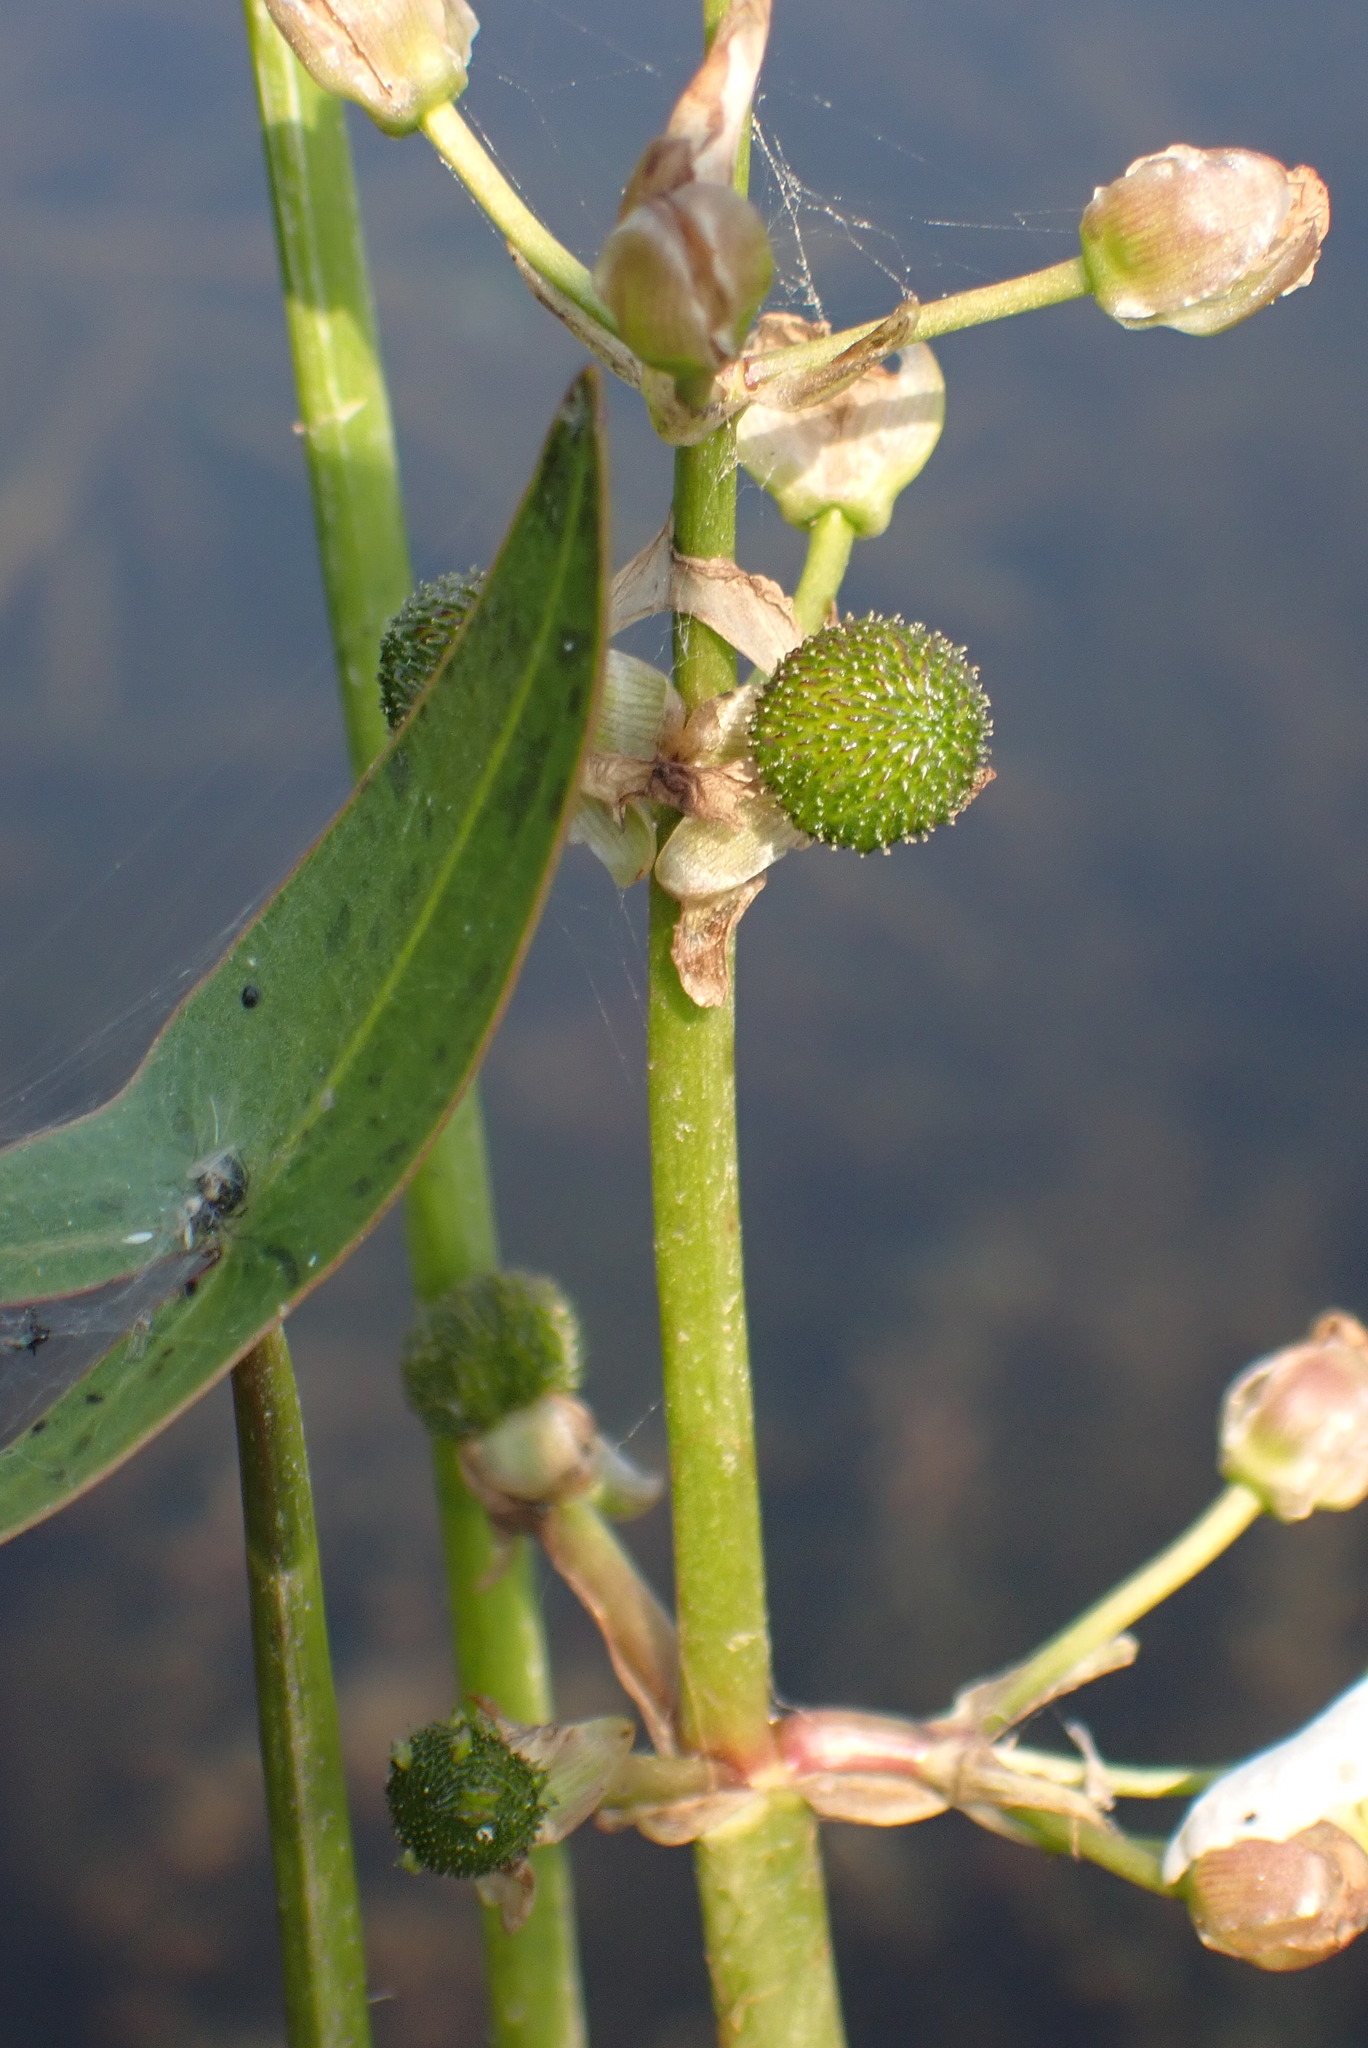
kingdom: Plantae
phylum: Tracheophyta
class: Liliopsida
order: Alismatales
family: Alismataceae
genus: Sagittaria
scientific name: Sagittaria cuneata
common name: Northern arrowhead
